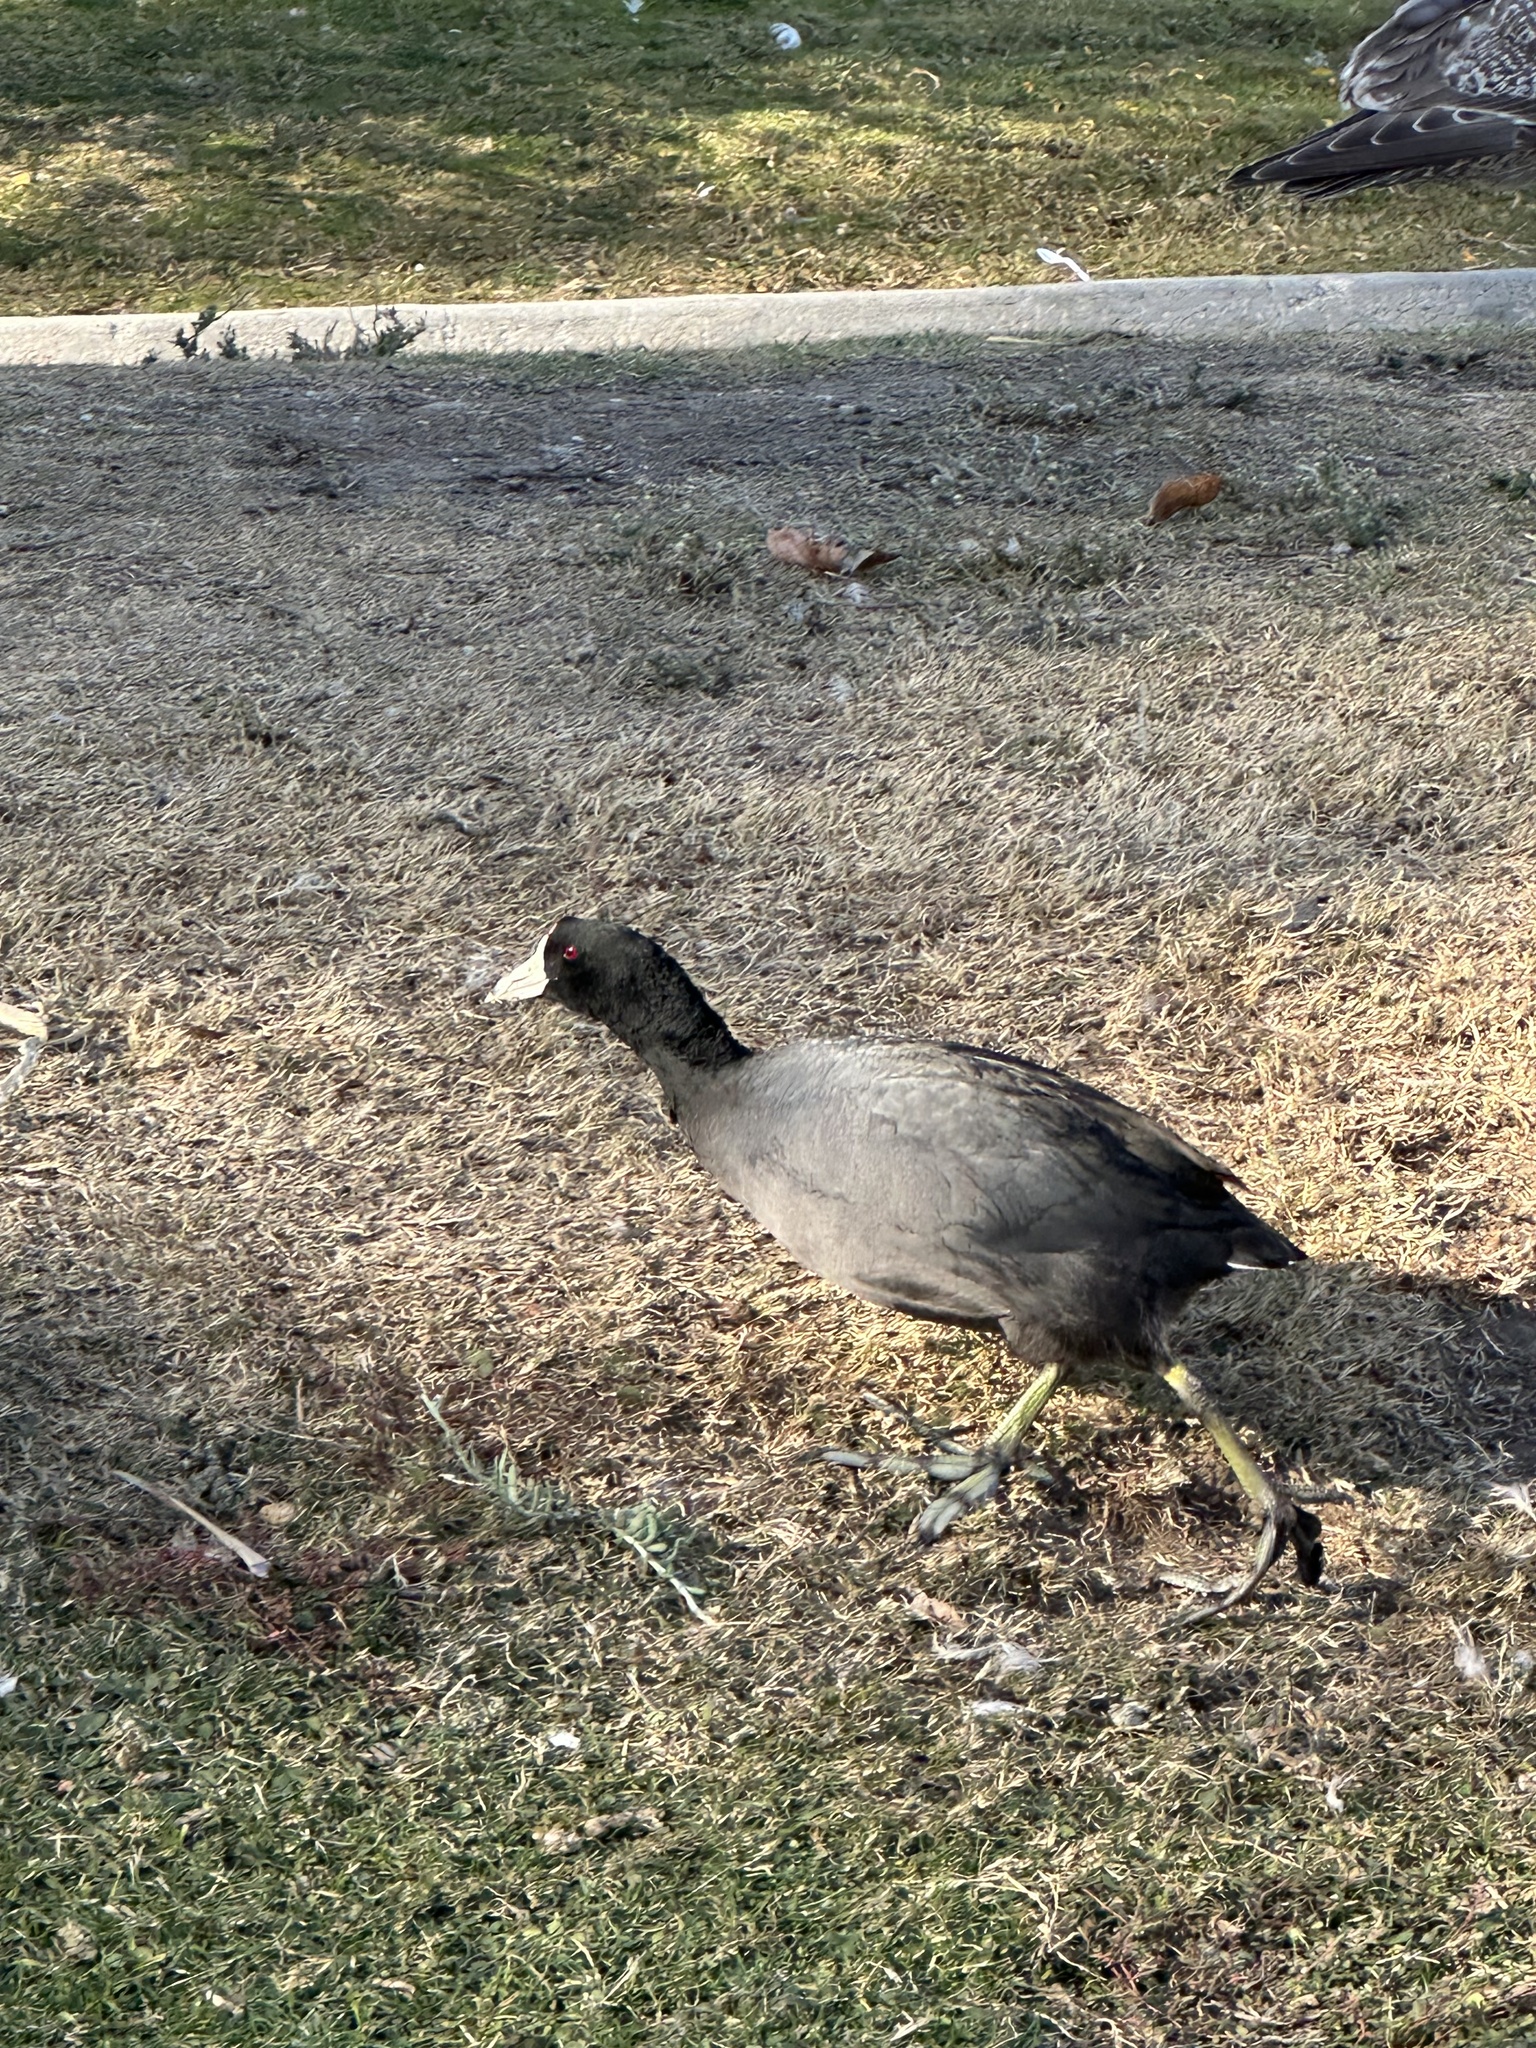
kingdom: Animalia
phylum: Chordata
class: Aves
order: Gruiformes
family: Rallidae
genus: Fulica
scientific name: Fulica americana
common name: American coot
